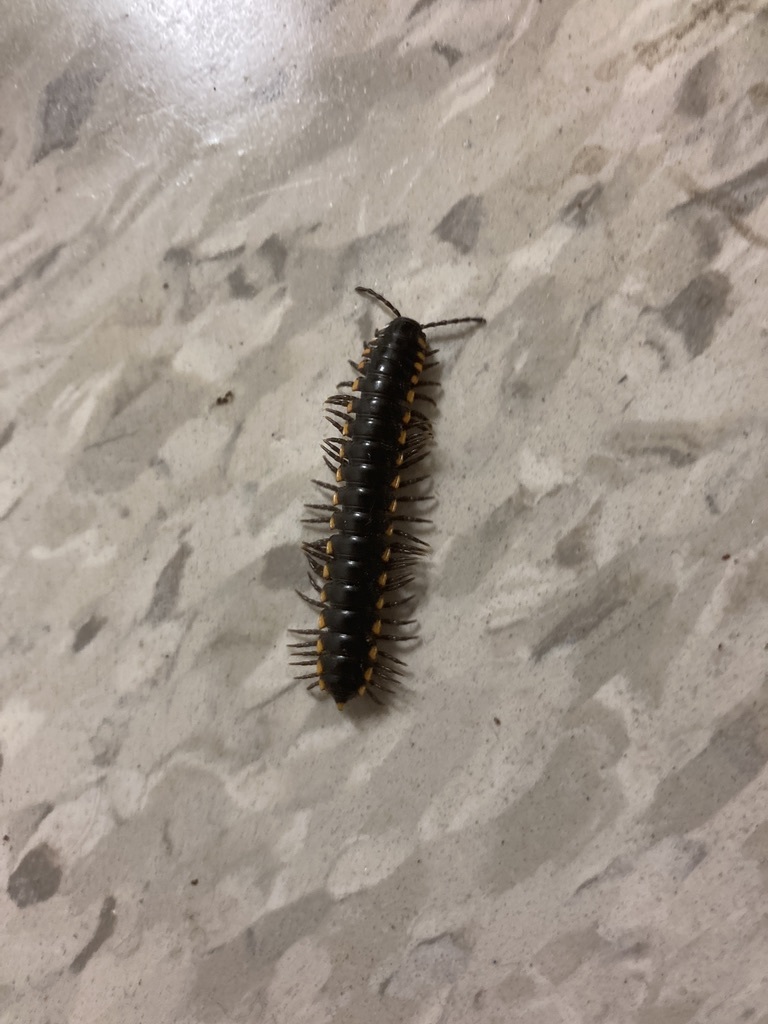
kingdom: Animalia
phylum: Arthropoda
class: Diplopoda
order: Polydesmida
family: Xystodesmidae
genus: Harpaphe
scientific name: Harpaphe haydeniana
